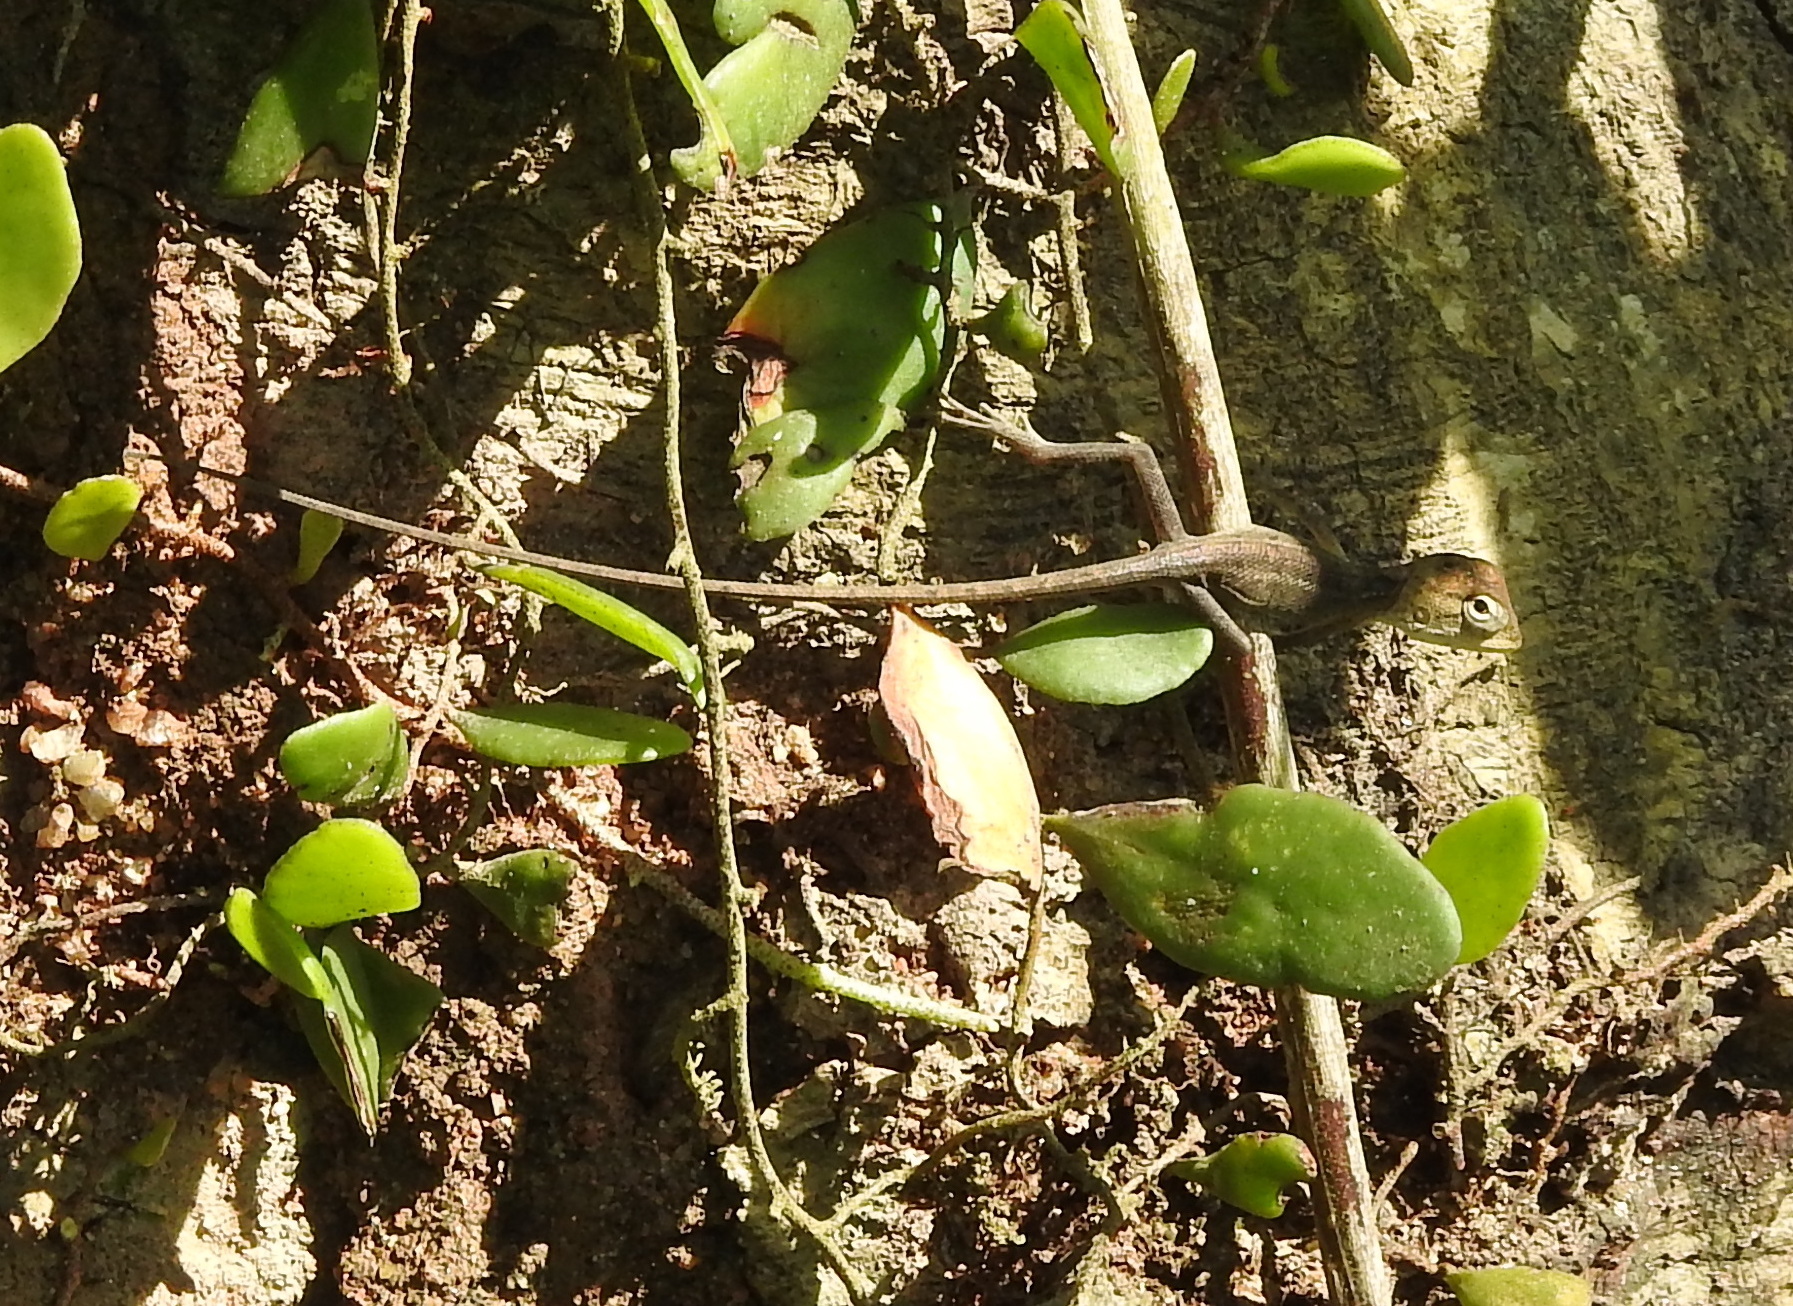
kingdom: Animalia
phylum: Chordata
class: Squamata
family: Agamidae
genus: Calotes
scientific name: Calotes versicolor
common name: Oriental garden lizard
